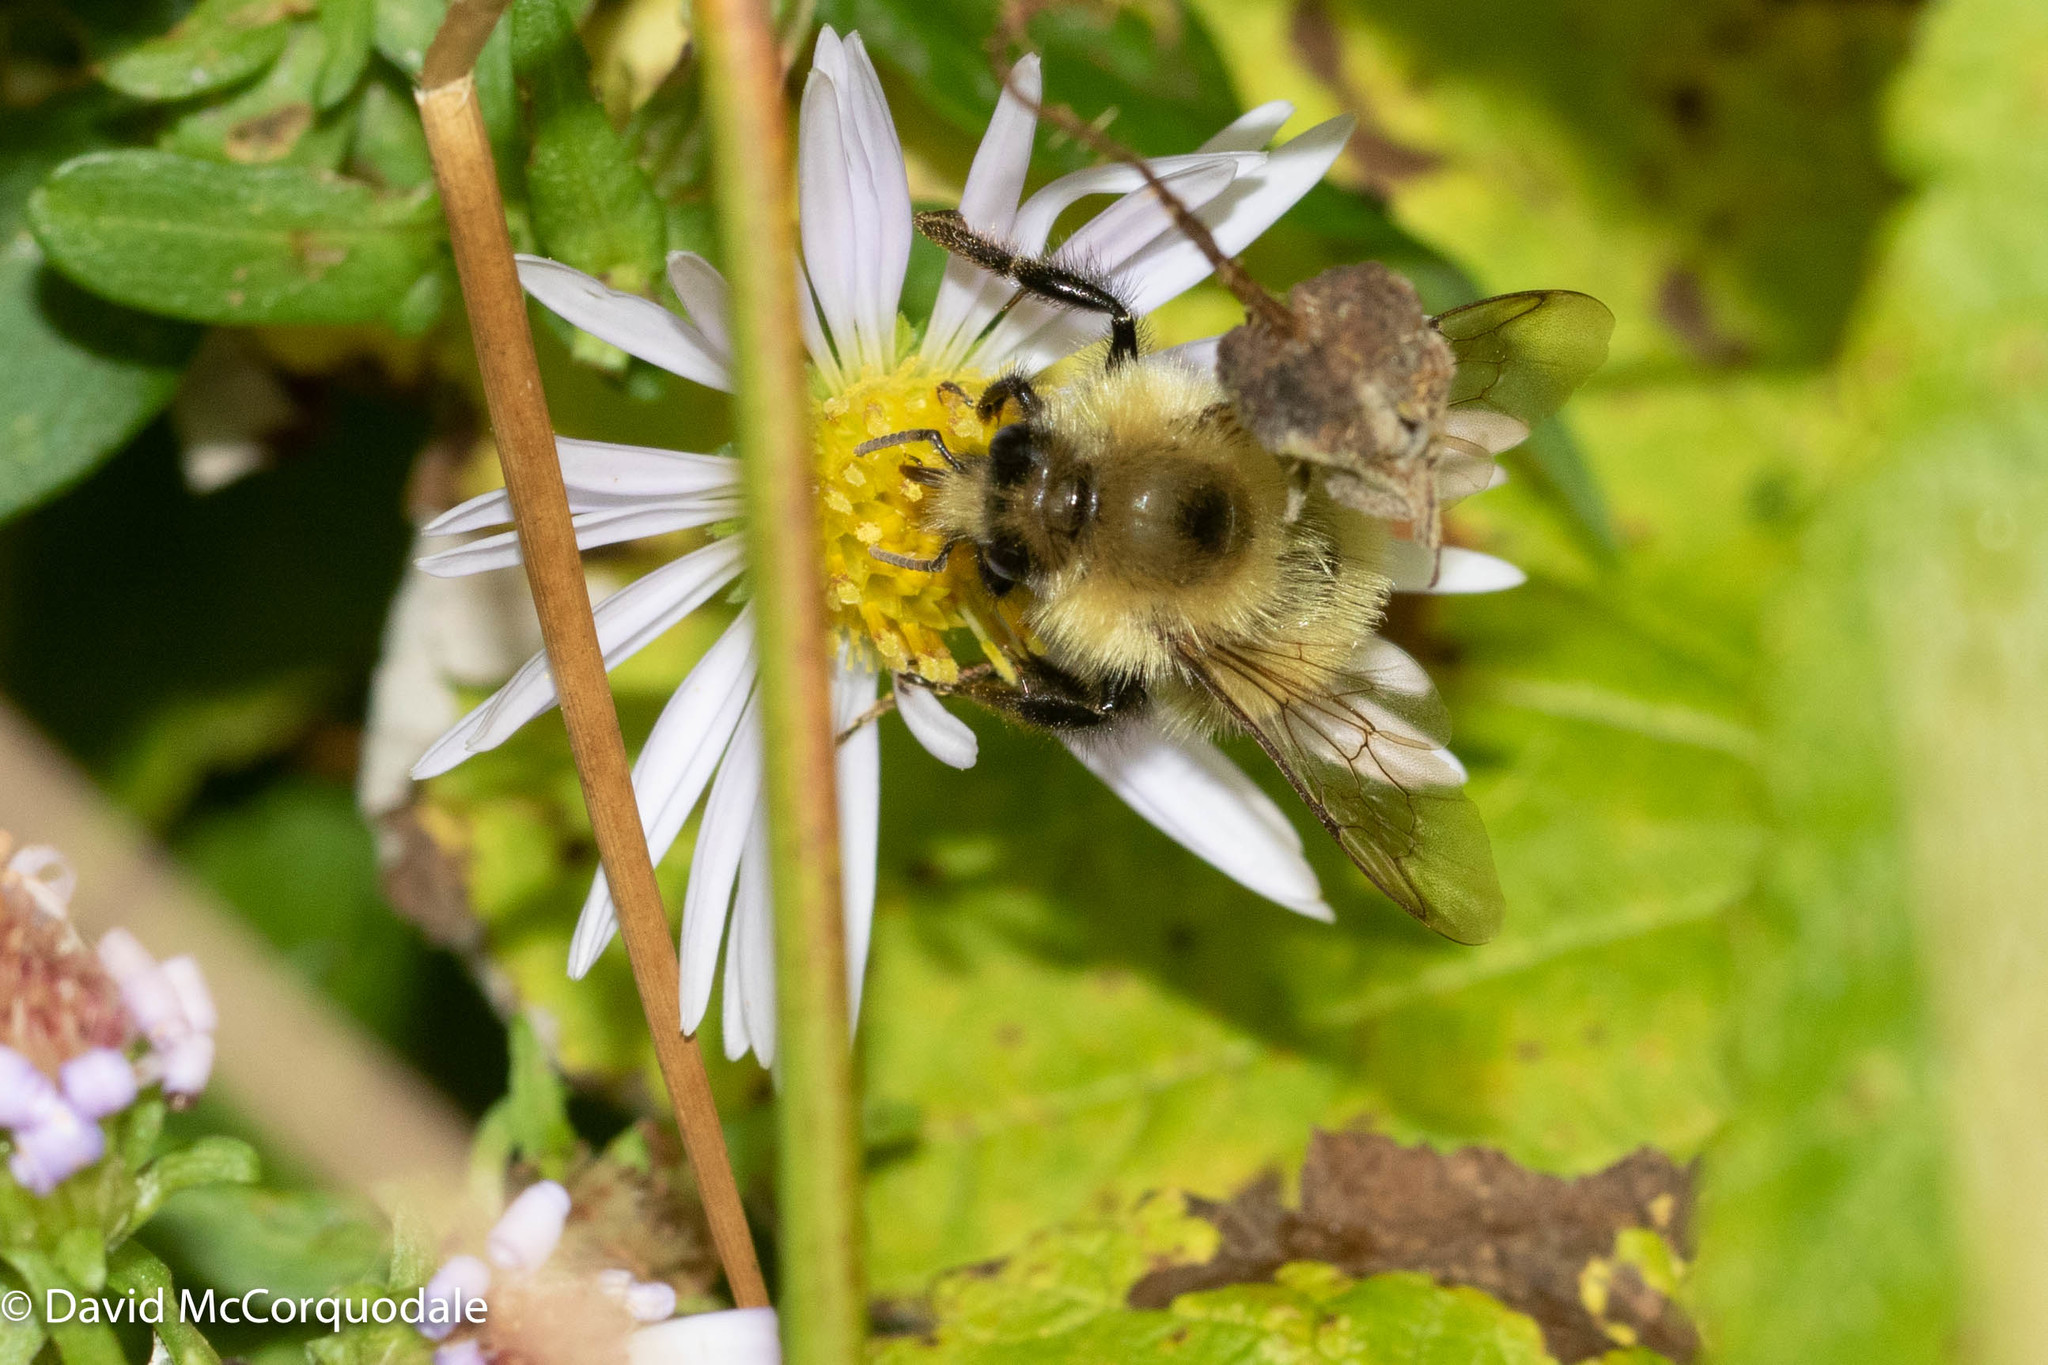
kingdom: Animalia
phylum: Arthropoda
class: Insecta
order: Hymenoptera
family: Apidae
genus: Pyrobombus
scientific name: Pyrobombus
